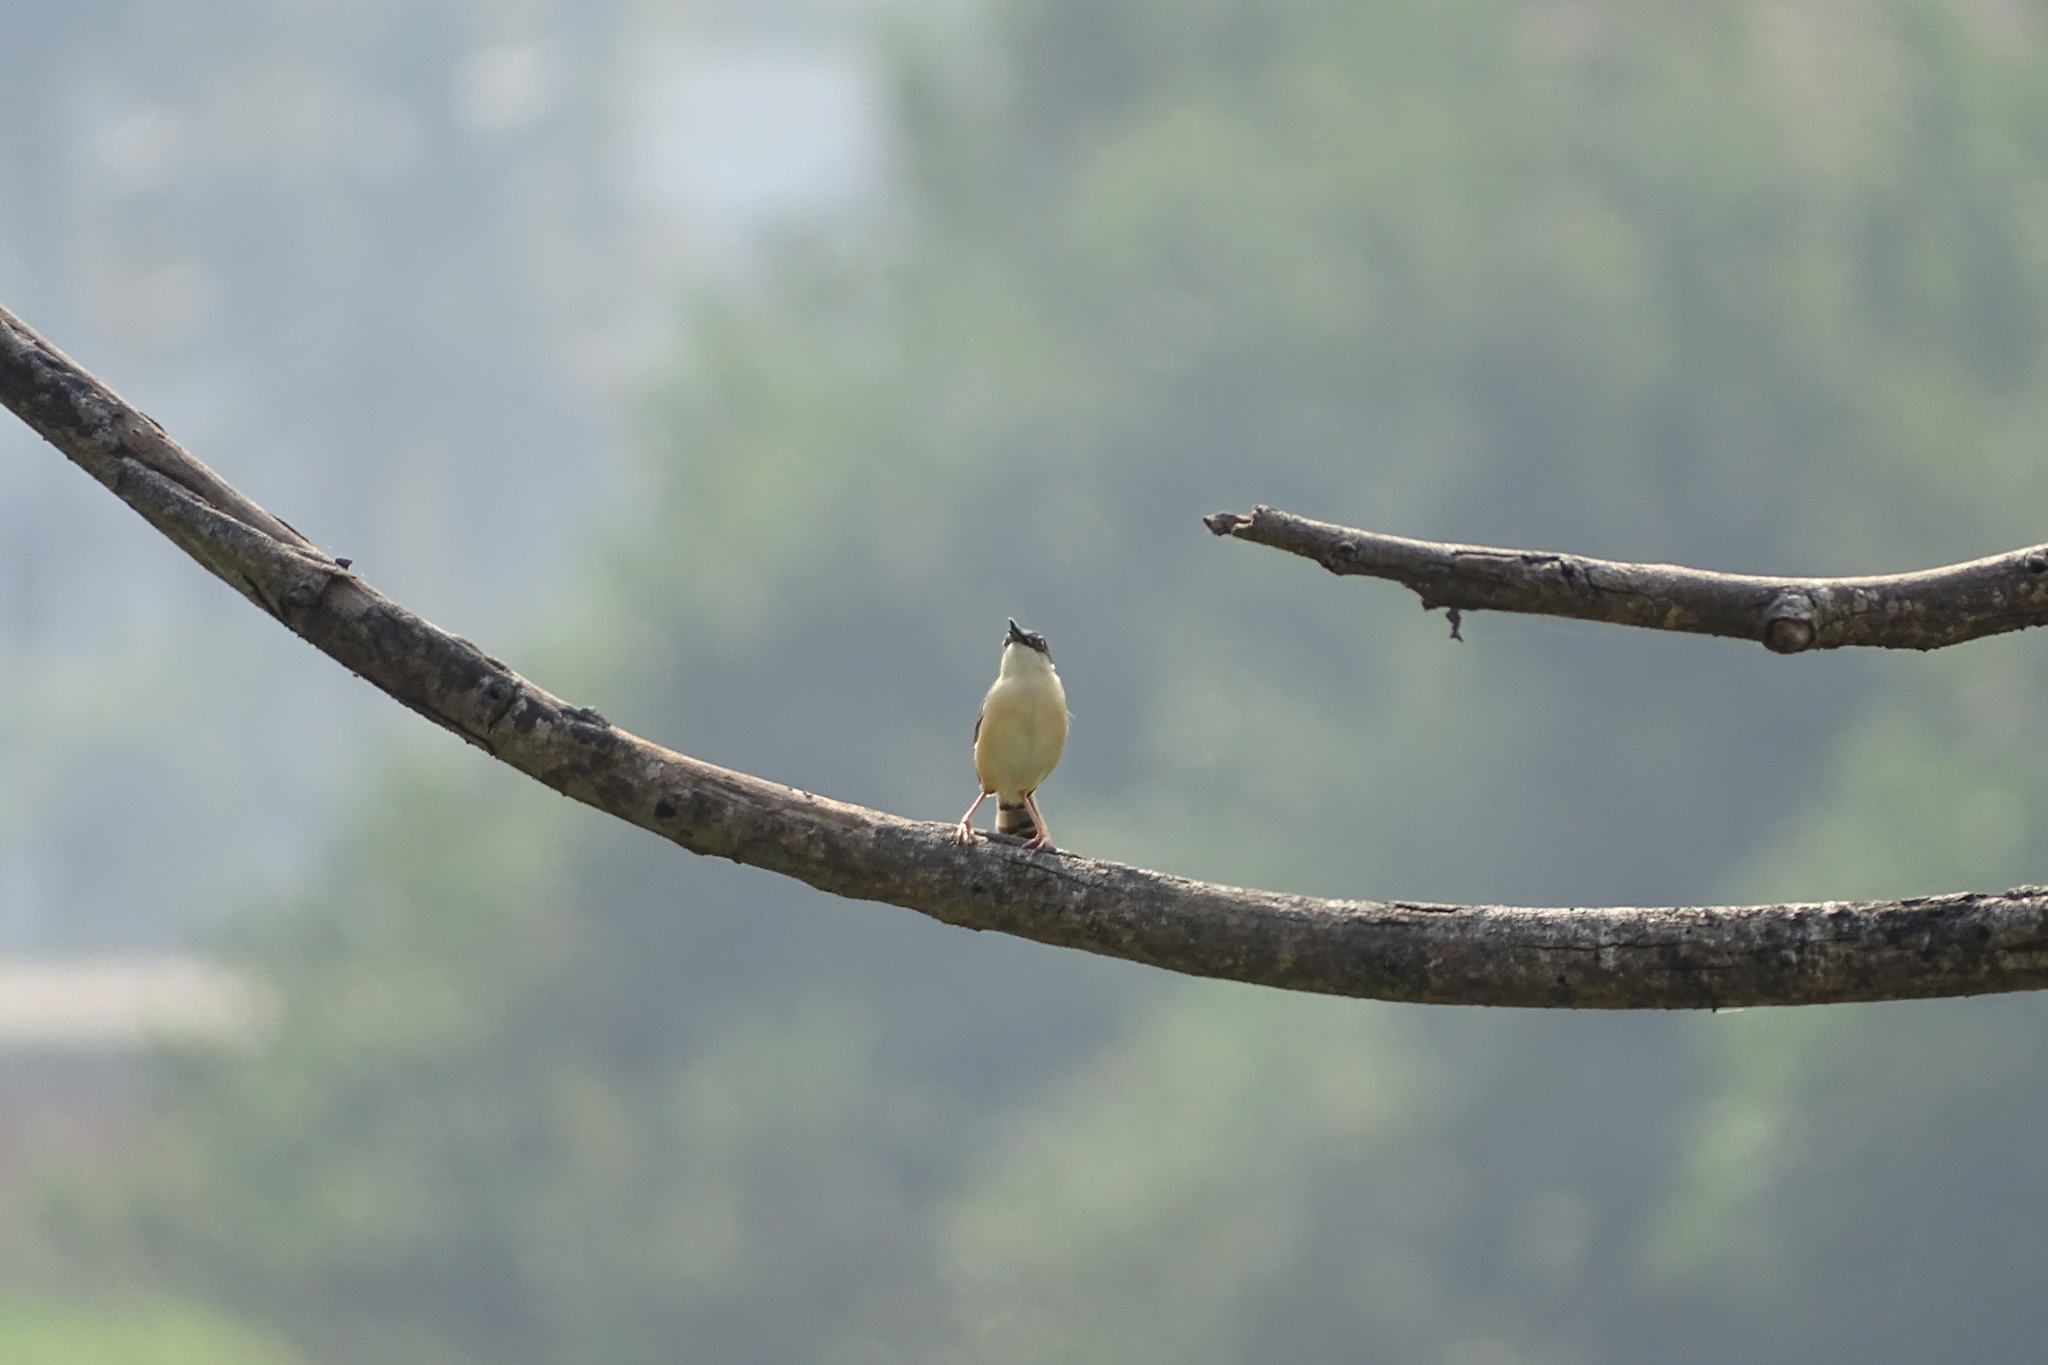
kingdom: Animalia
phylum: Chordata
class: Aves
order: Passeriformes
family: Cisticolidae
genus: Prinia
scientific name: Prinia socialis
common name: Ashy prinia
